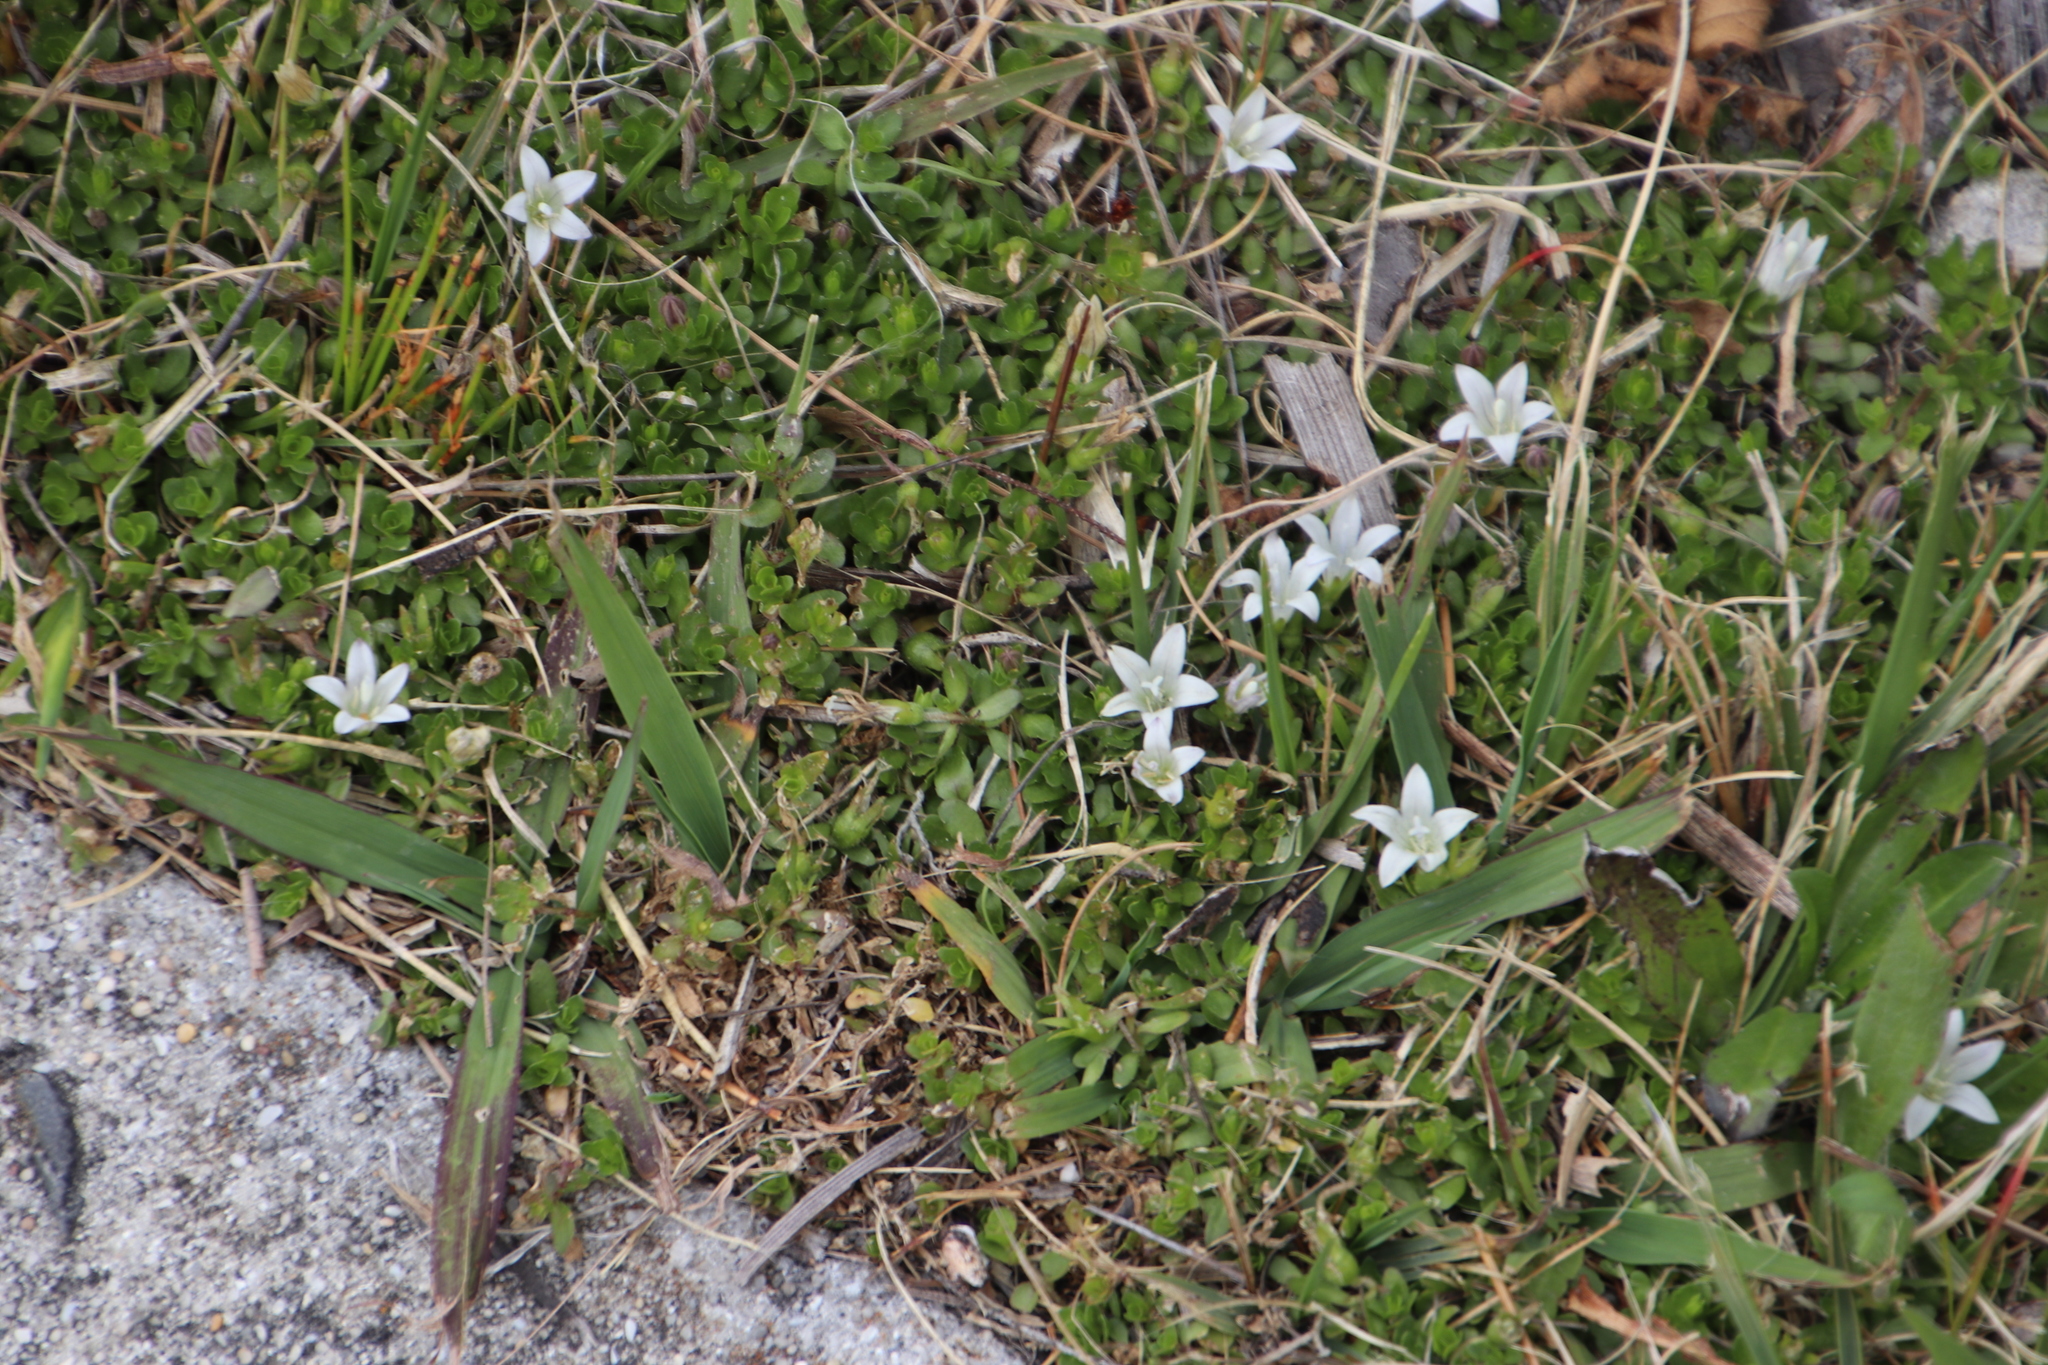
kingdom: Plantae
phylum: Tracheophyta
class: Magnoliopsida
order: Asterales
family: Campanulaceae
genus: Wahlenbergia
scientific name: Wahlenbergia procumbens
